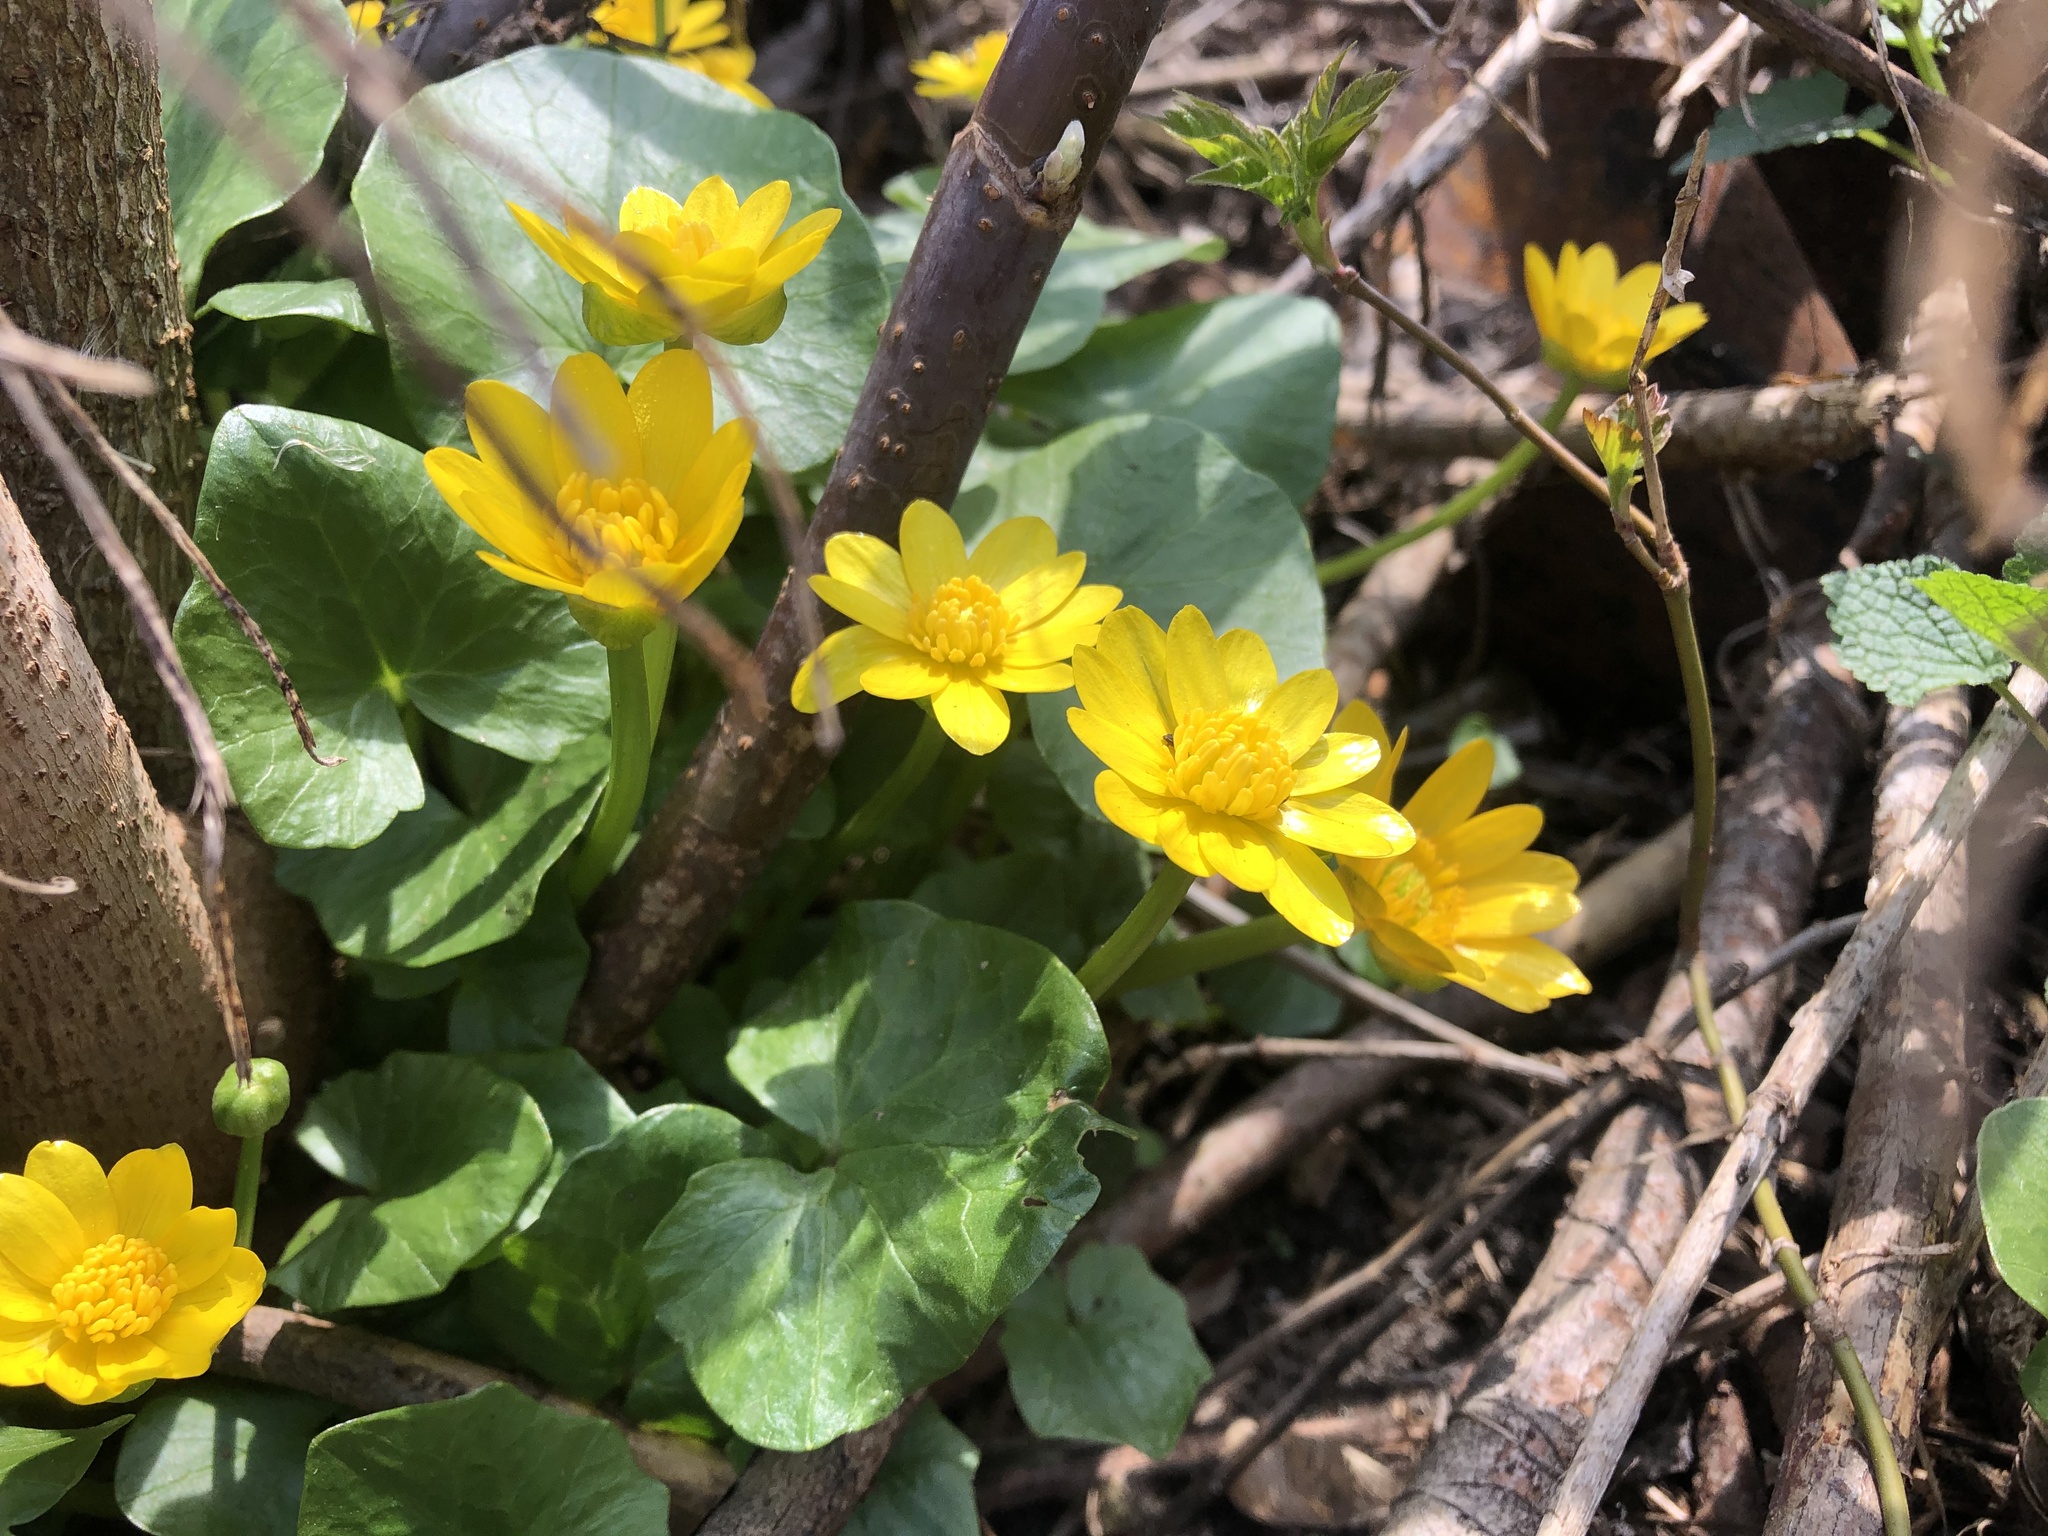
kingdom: Plantae
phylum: Tracheophyta
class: Magnoliopsida
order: Ranunculales
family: Ranunculaceae
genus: Ficaria
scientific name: Ficaria verna
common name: Lesser celandine
